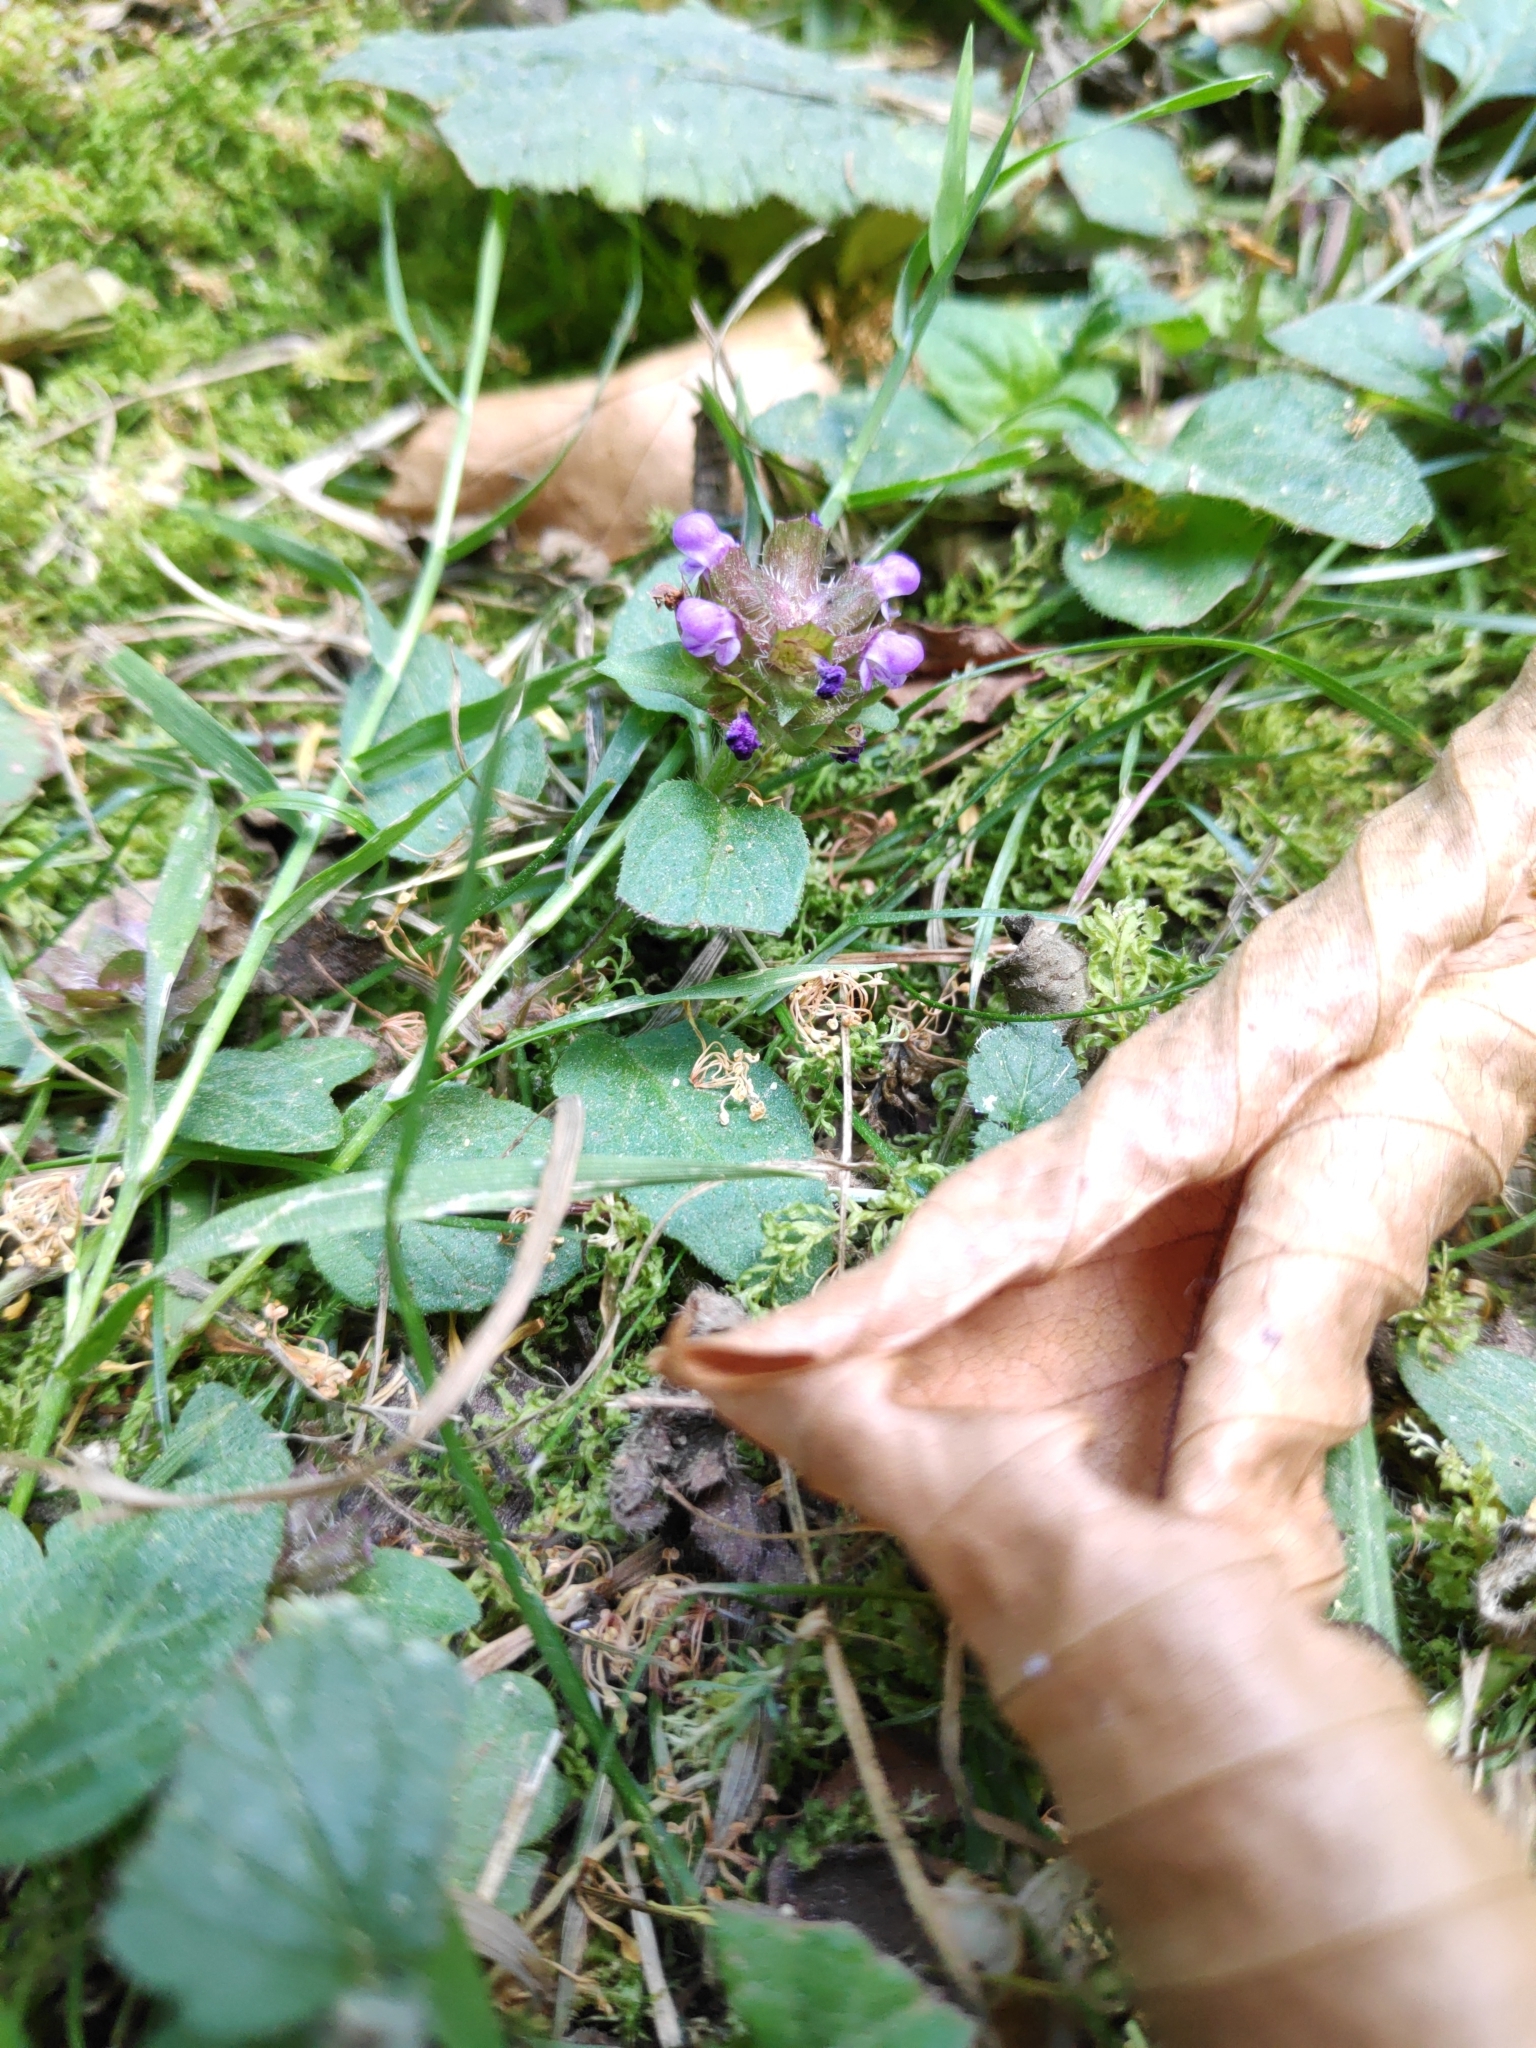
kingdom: Plantae
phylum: Tracheophyta
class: Magnoliopsida
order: Lamiales
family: Lamiaceae
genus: Prunella
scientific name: Prunella vulgaris
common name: Heal-all
